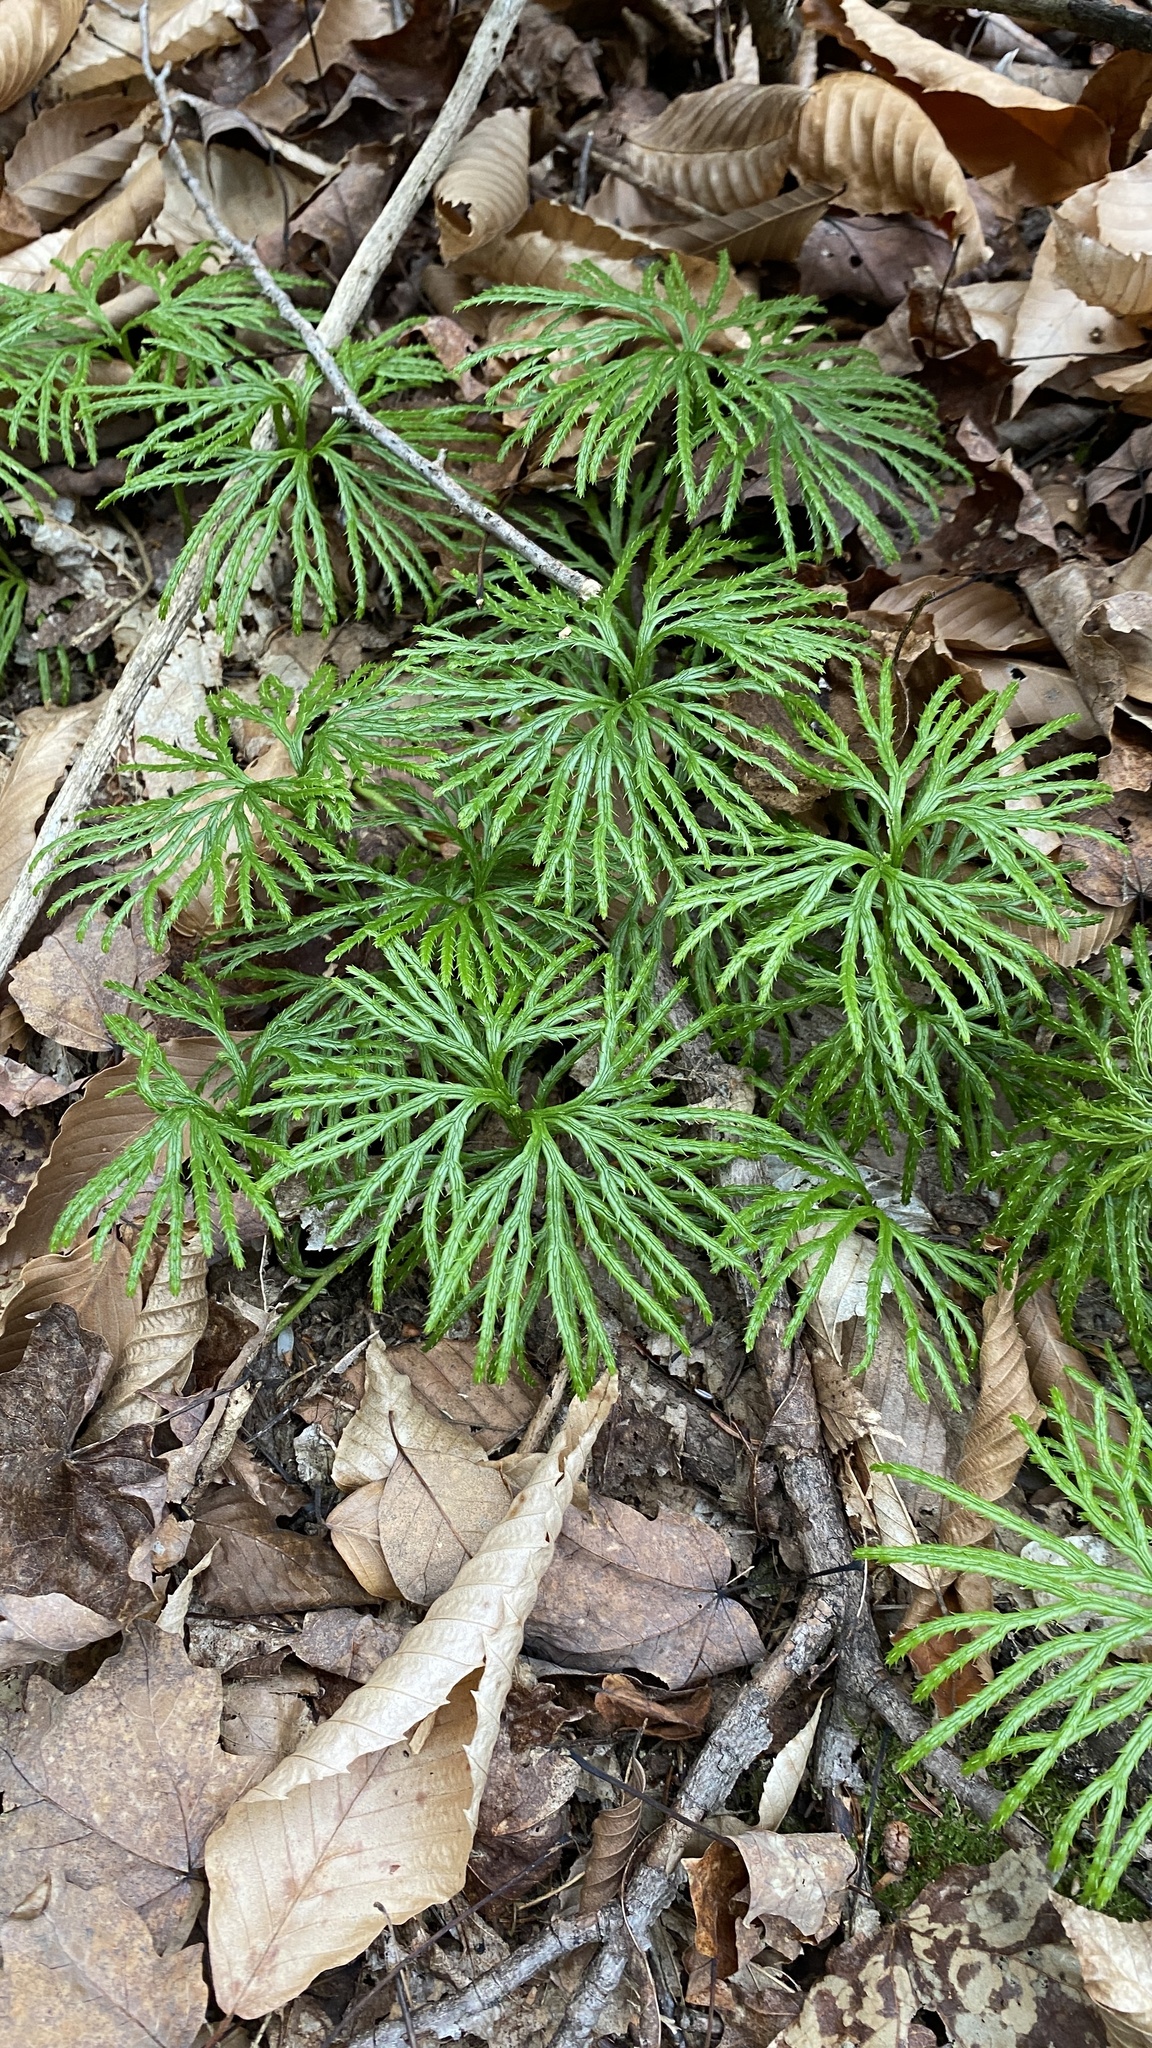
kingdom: Plantae
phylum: Tracheophyta
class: Lycopodiopsida
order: Lycopodiales
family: Lycopodiaceae
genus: Diphasiastrum
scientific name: Diphasiastrum digitatum
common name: Southern running-pine
